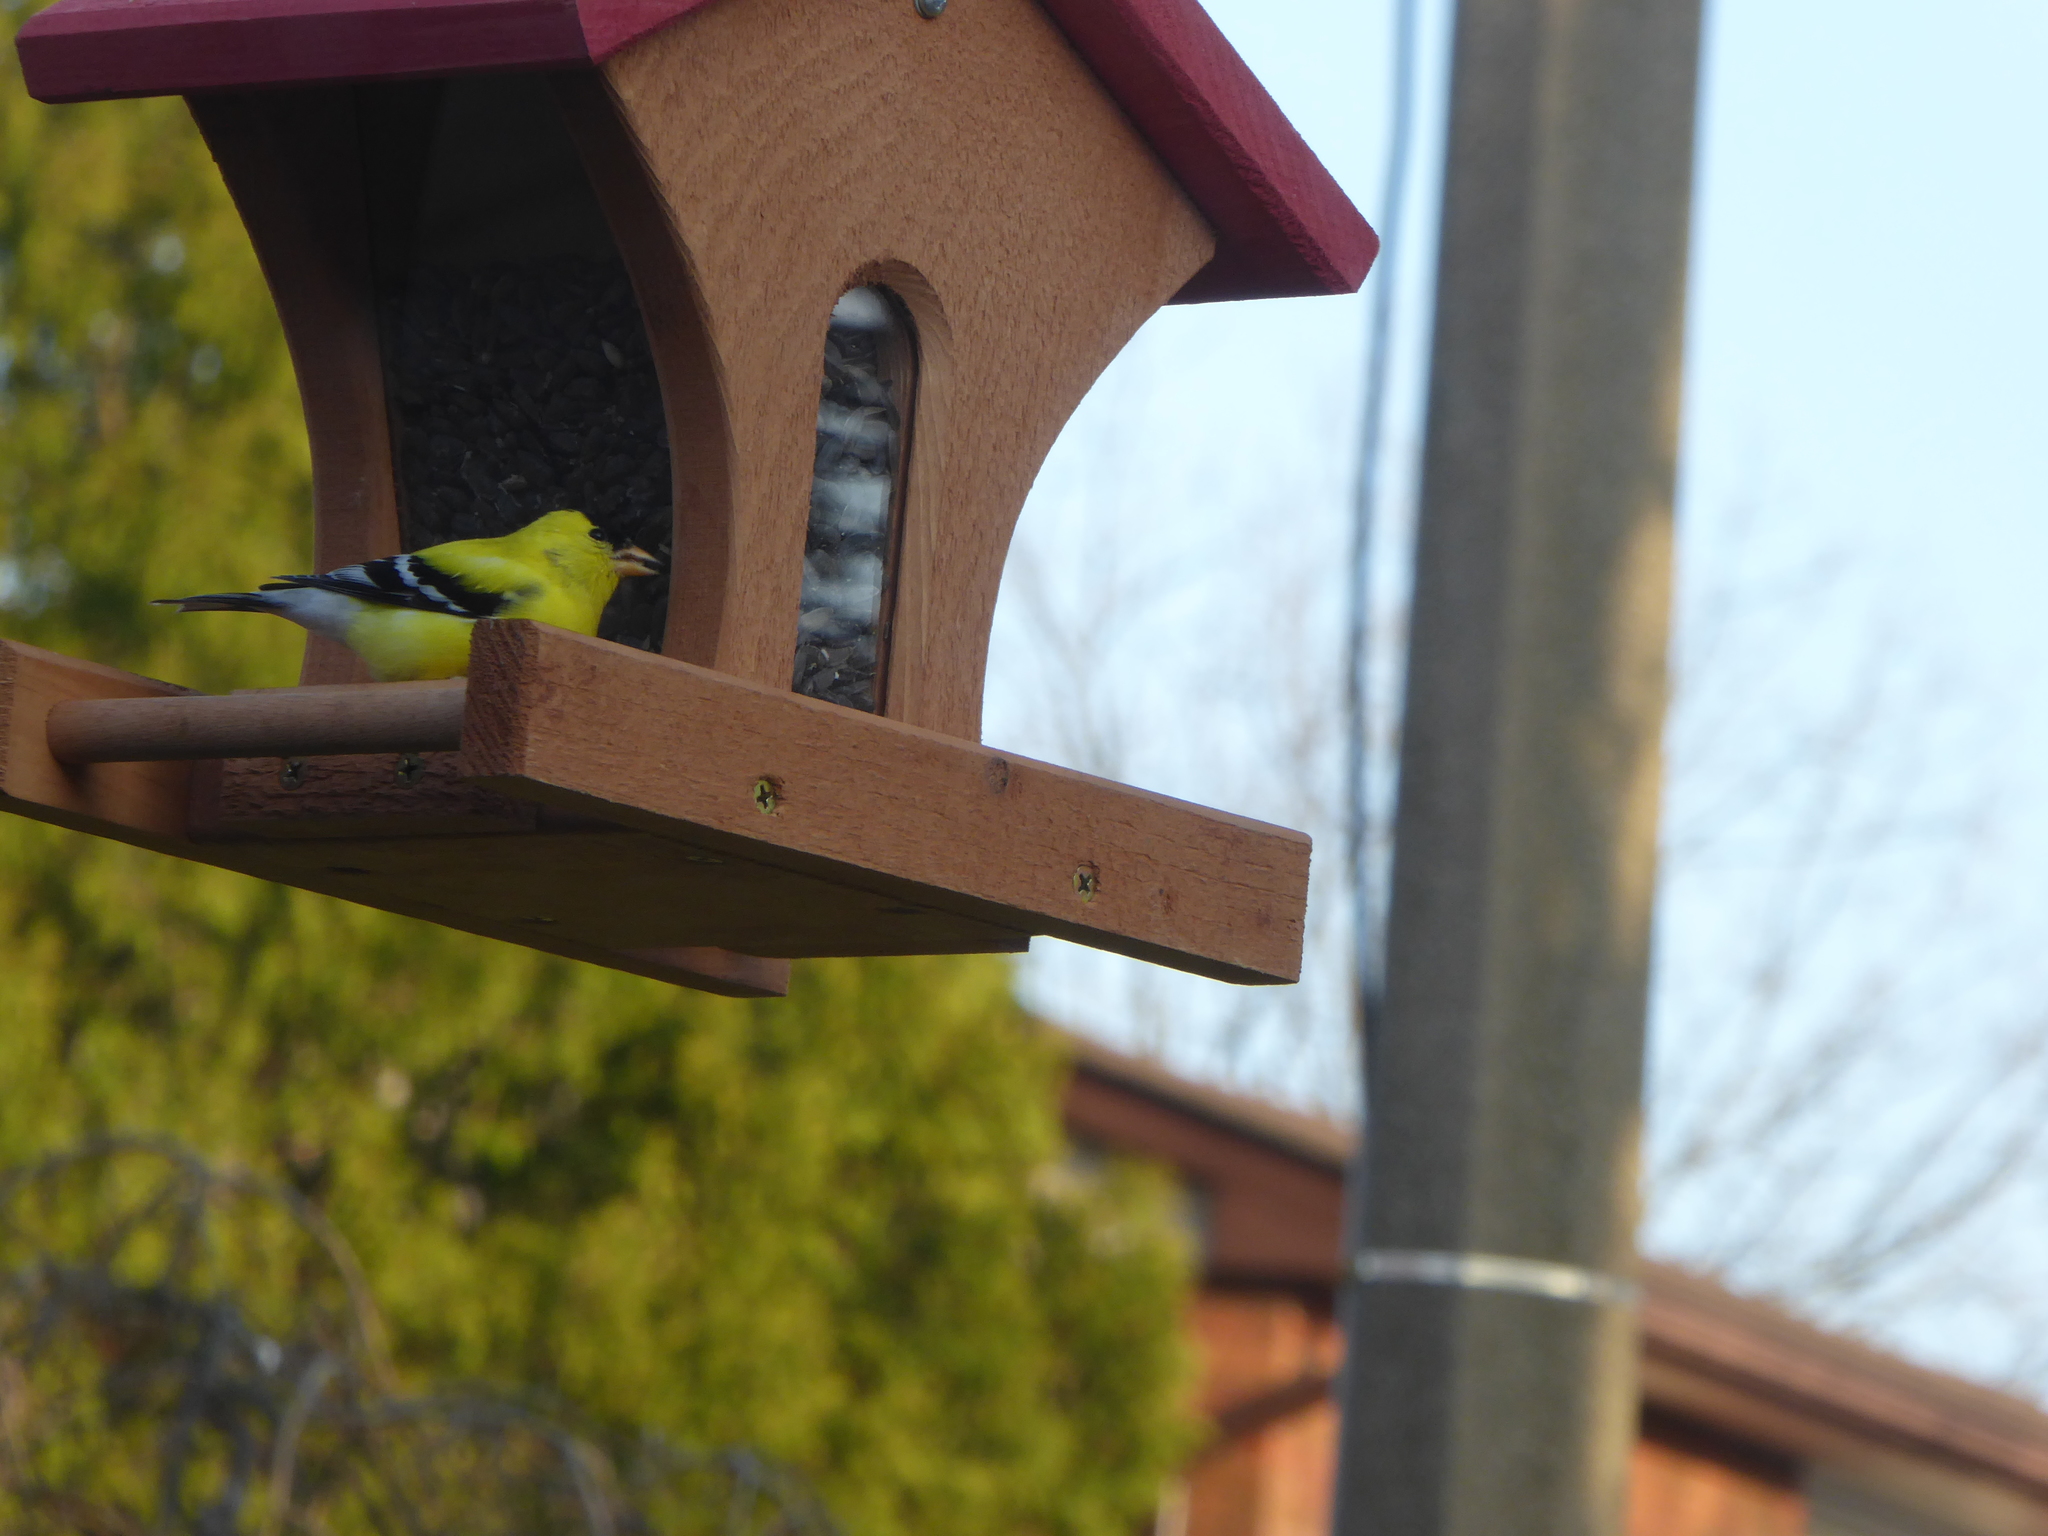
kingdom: Animalia
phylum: Chordata
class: Aves
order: Passeriformes
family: Fringillidae
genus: Spinus
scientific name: Spinus tristis
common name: American goldfinch
